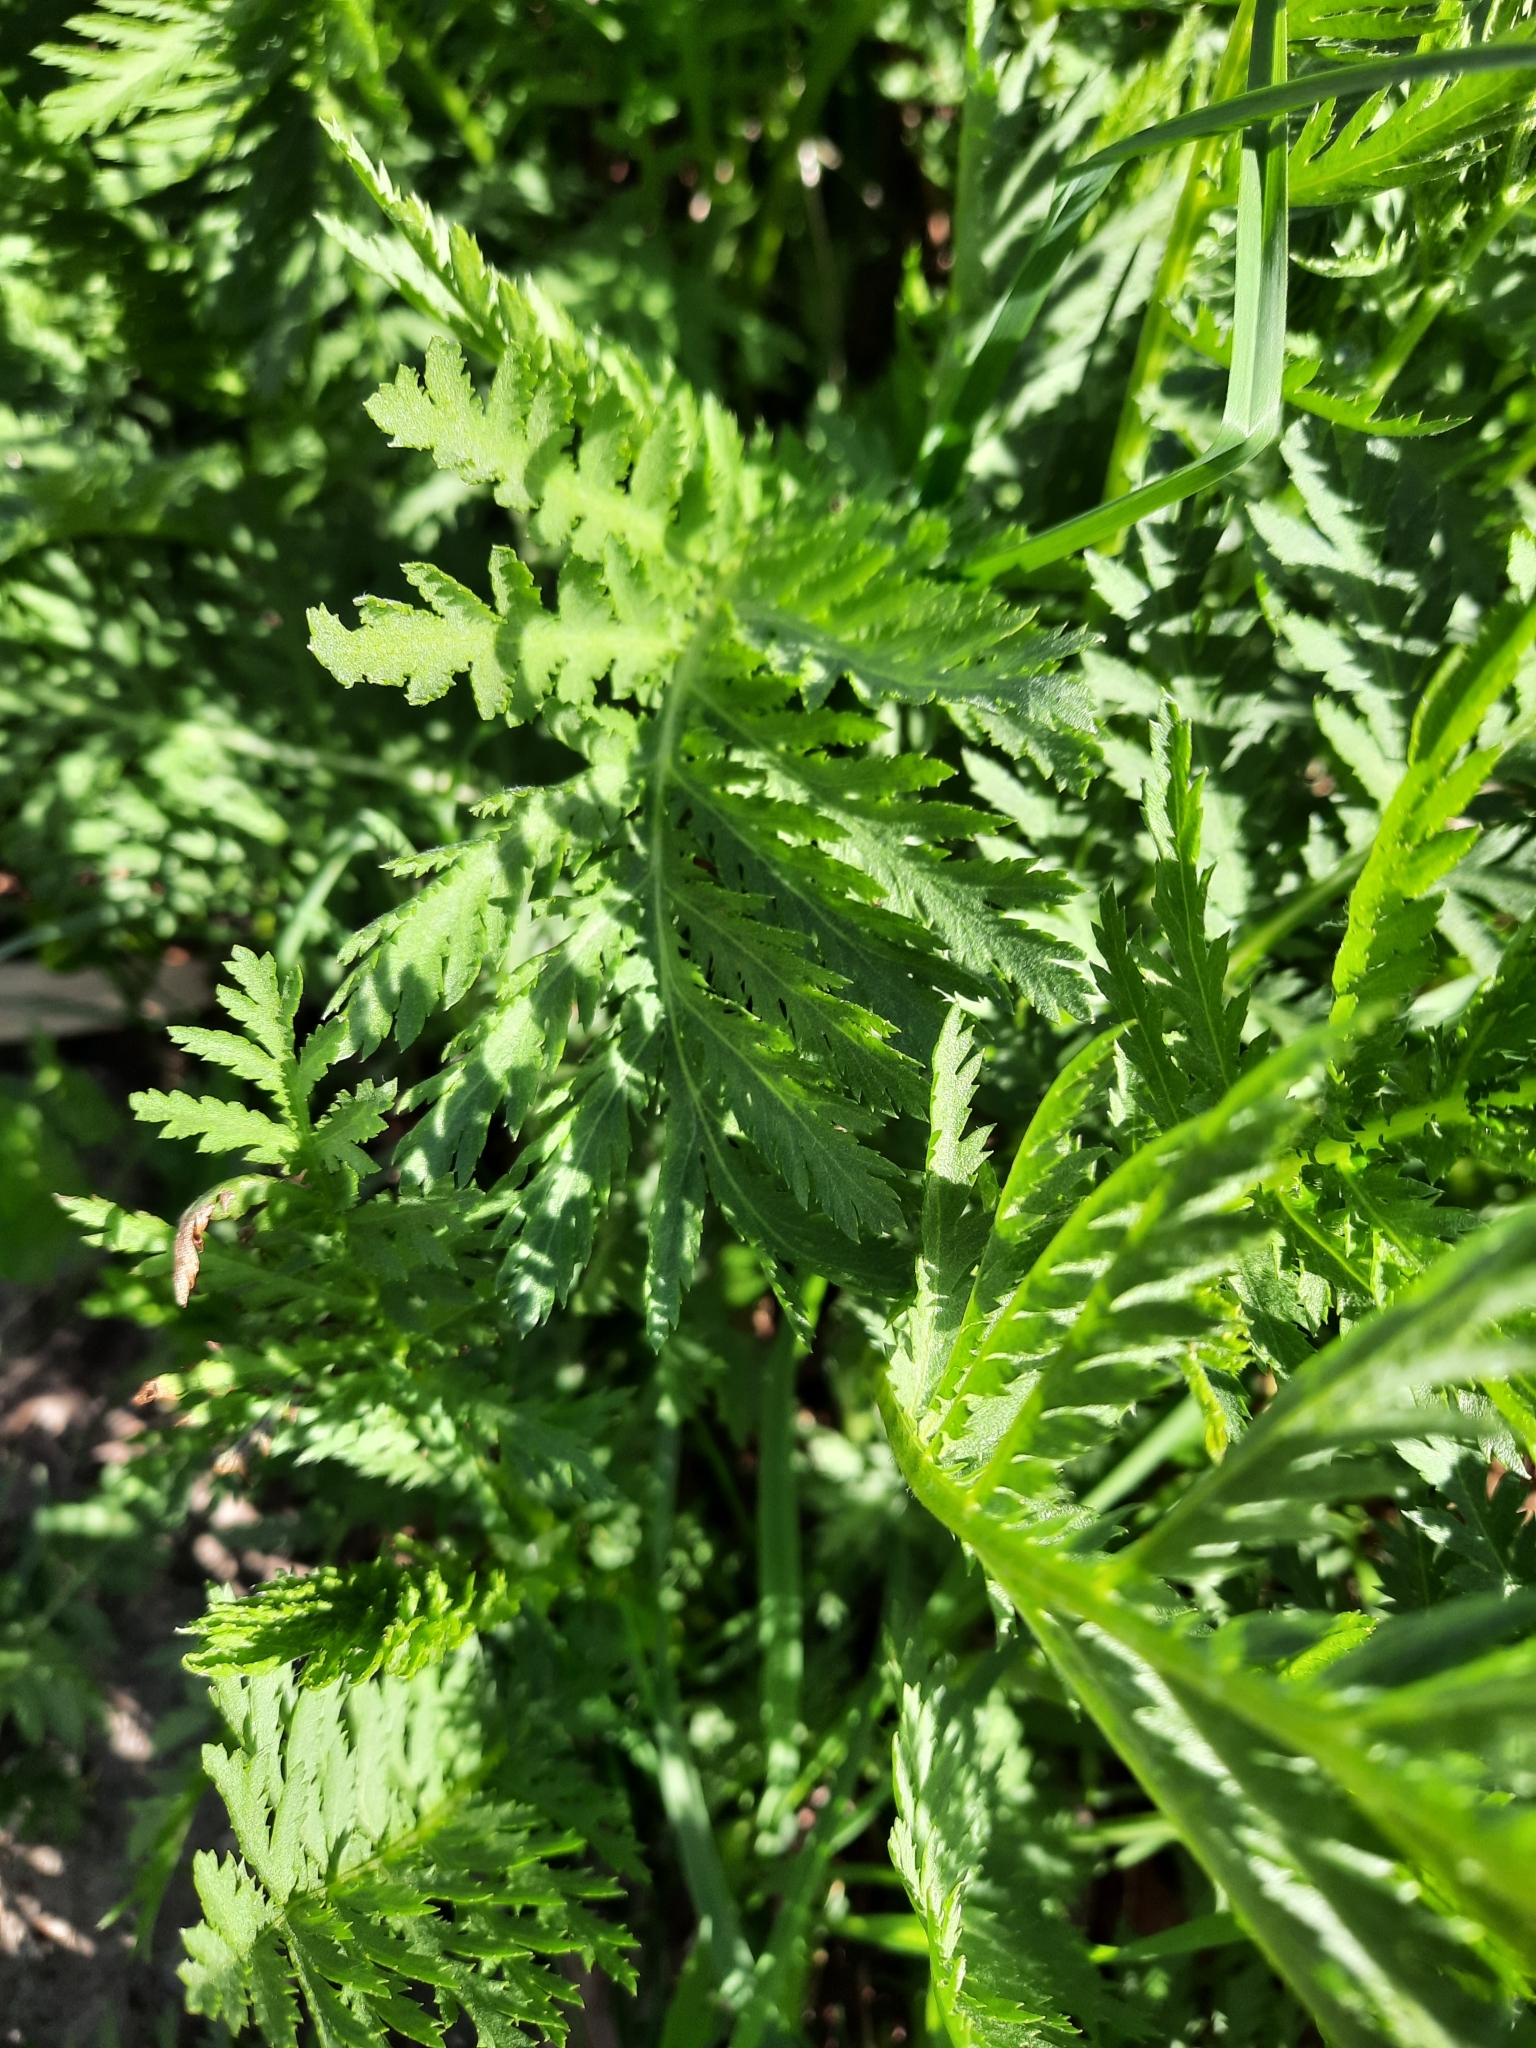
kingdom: Plantae
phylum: Tracheophyta
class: Magnoliopsida
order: Asterales
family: Asteraceae
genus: Tanacetum
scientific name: Tanacetum vulgare
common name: Common tansy
